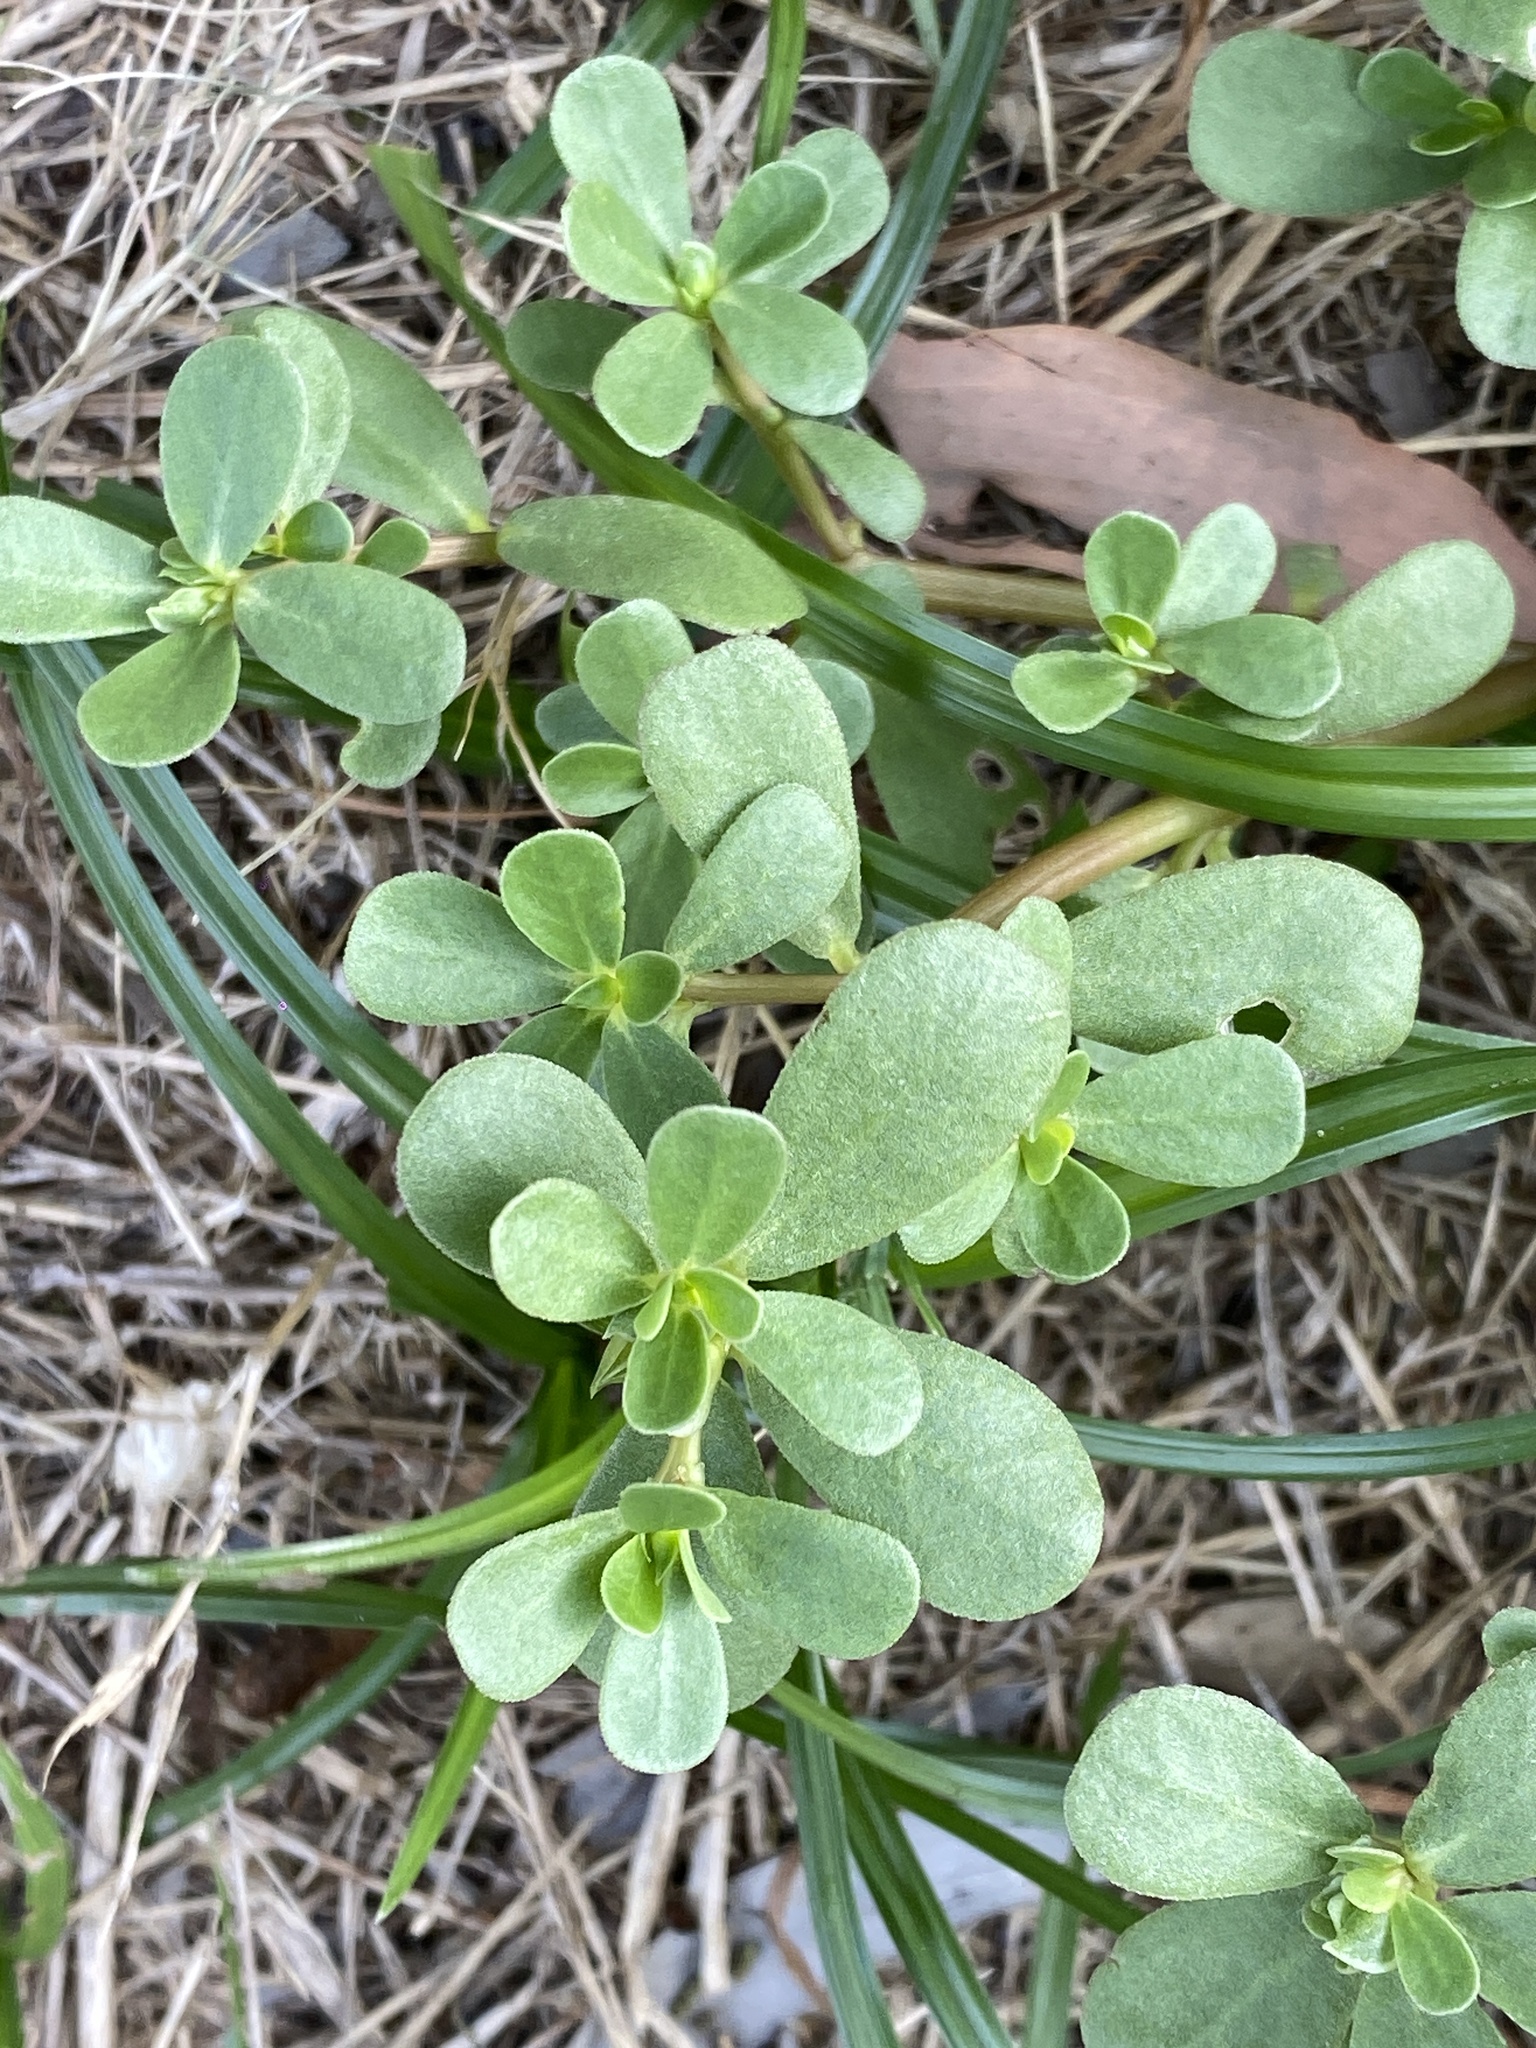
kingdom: Plantae
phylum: Tracheophyta
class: Magnoliopsida
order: Caryophyllales
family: Portulacaceae
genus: Portulaca
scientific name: Portulaca oleracea
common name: Common purslane
